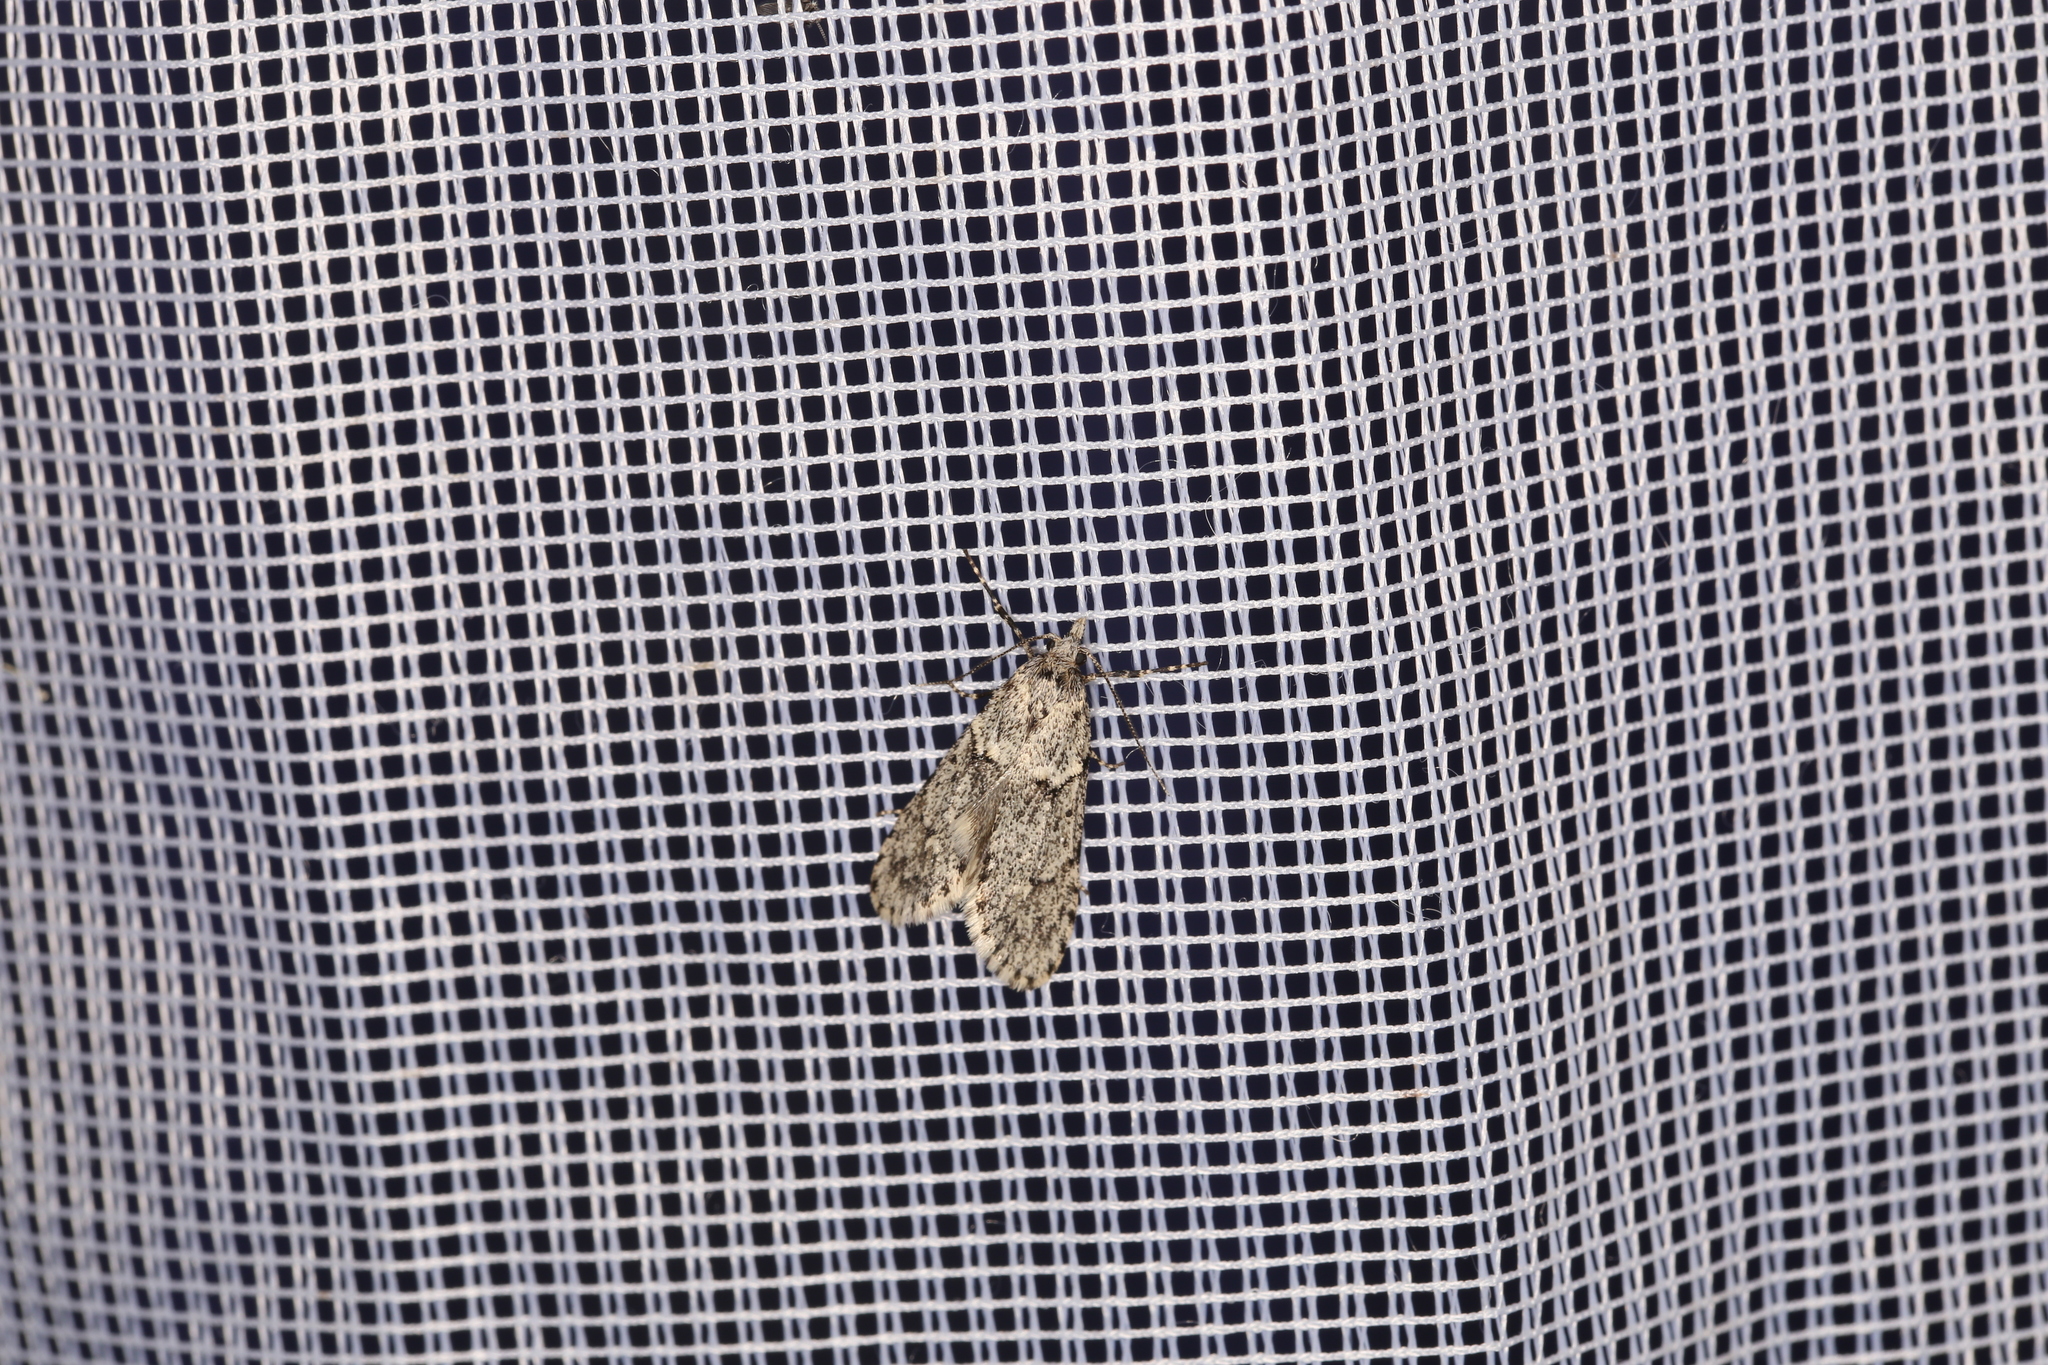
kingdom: Animalia
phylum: Arthropoda
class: Insecta
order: Lepidoptera
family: Lypusidae
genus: Diurnea
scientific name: Diurnea fagella
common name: March tubic
